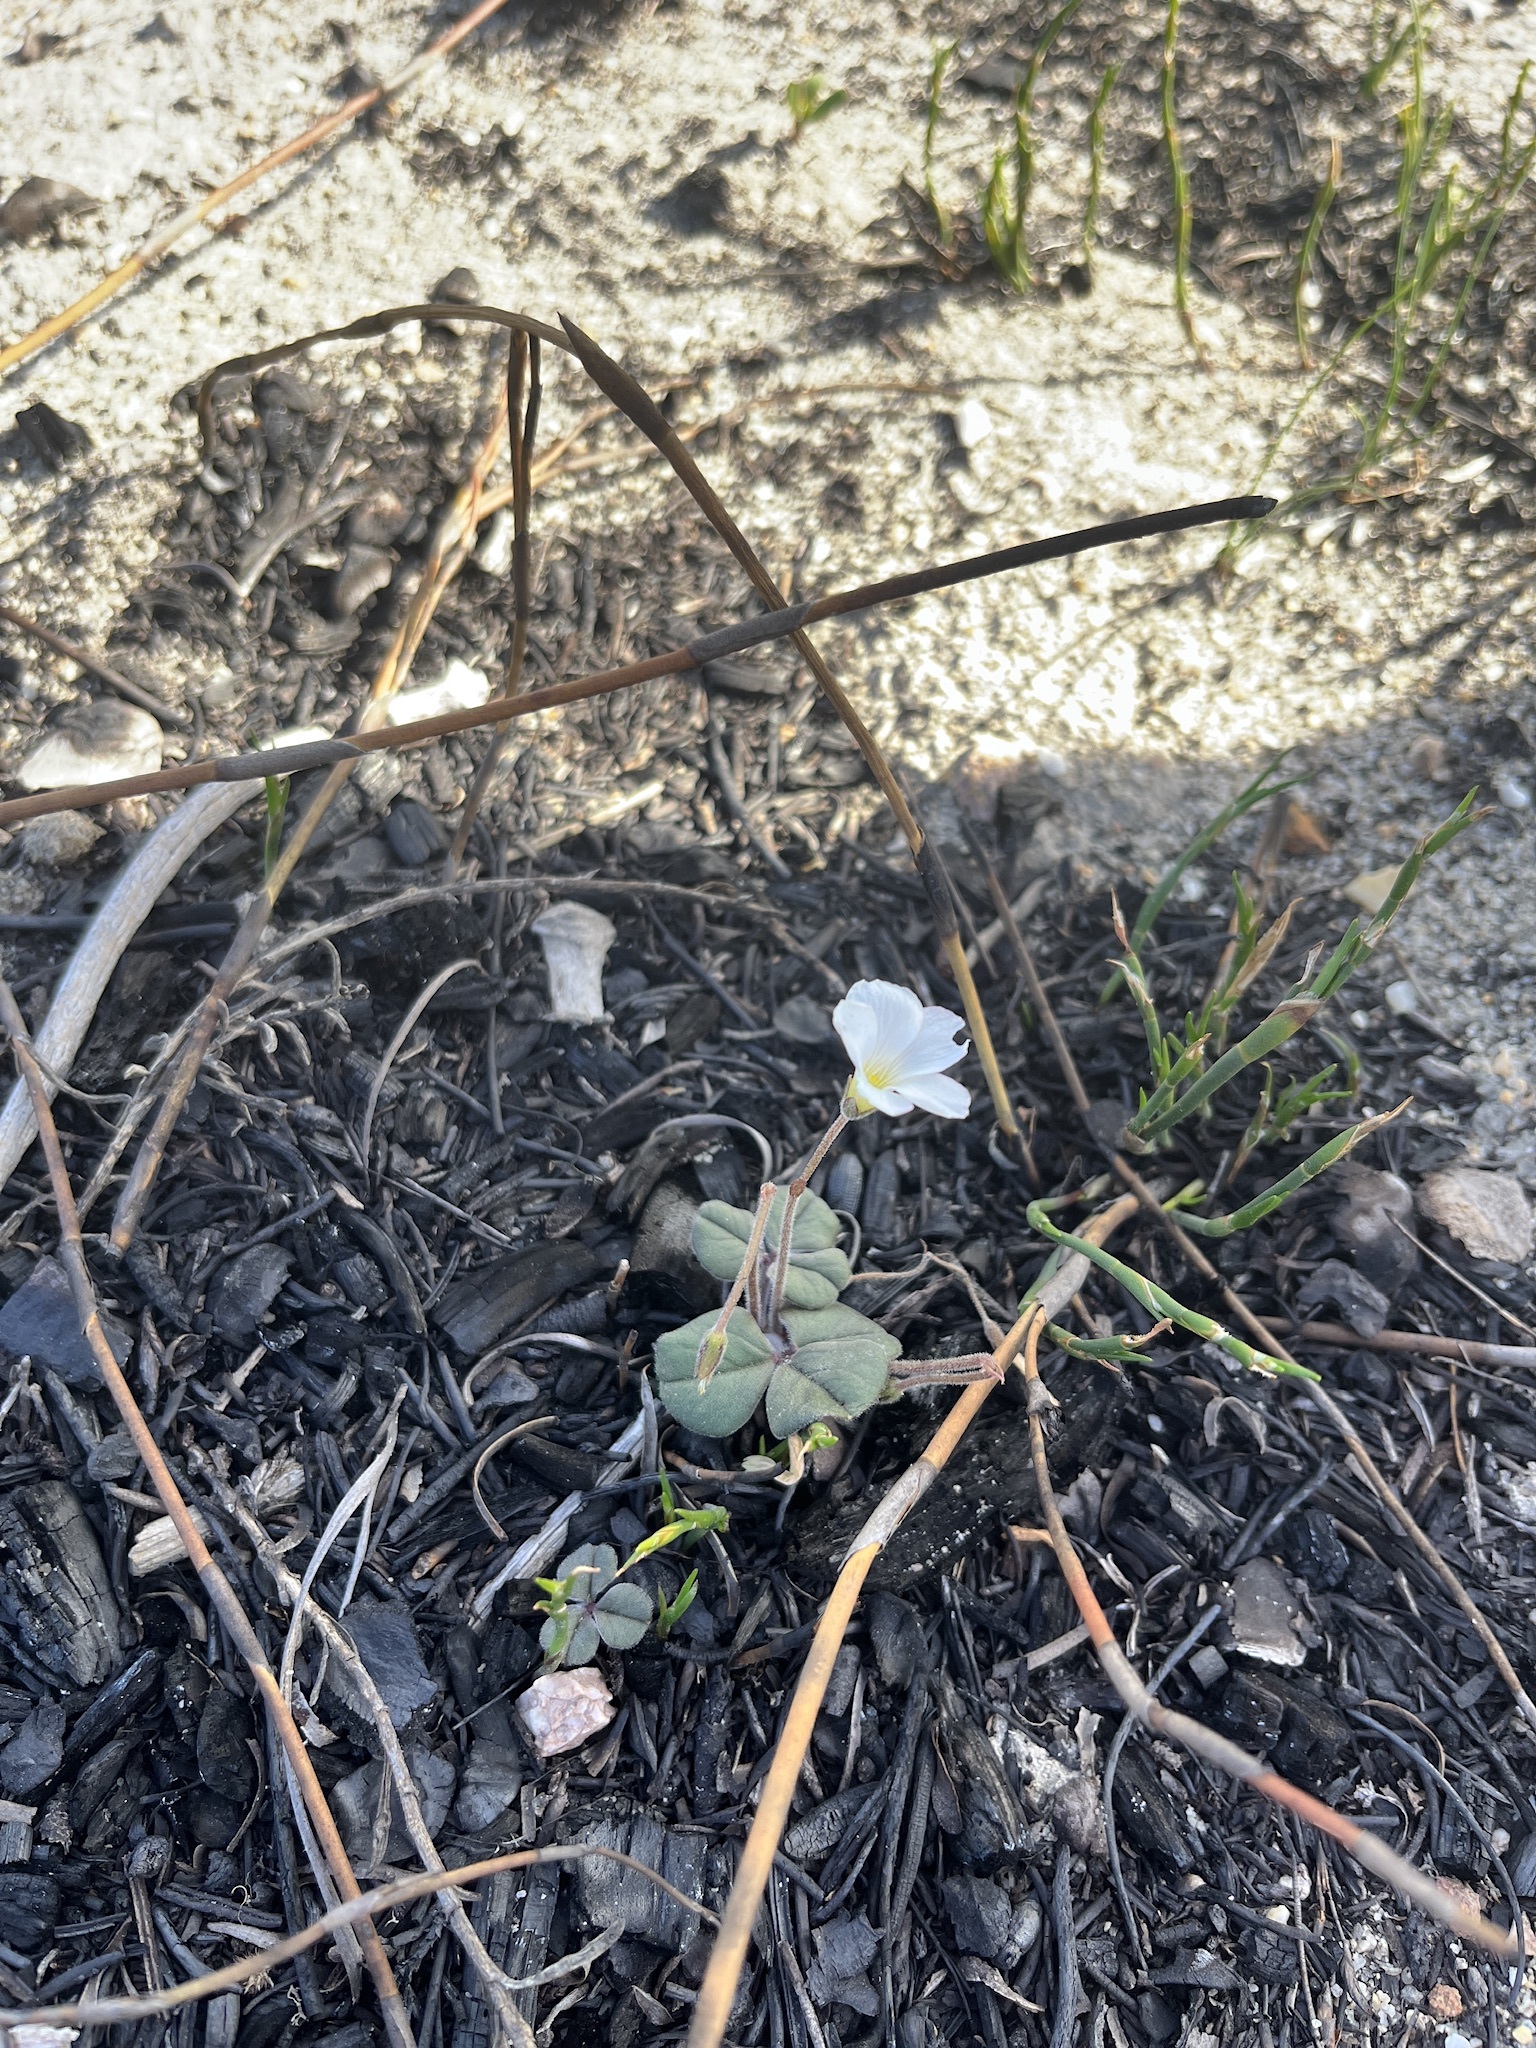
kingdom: Plantae
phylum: Tracheophyta
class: Magnoliopsida
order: Oxalidales
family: Oxalidaceae
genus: Oxalis
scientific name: Oxalis truncatula
